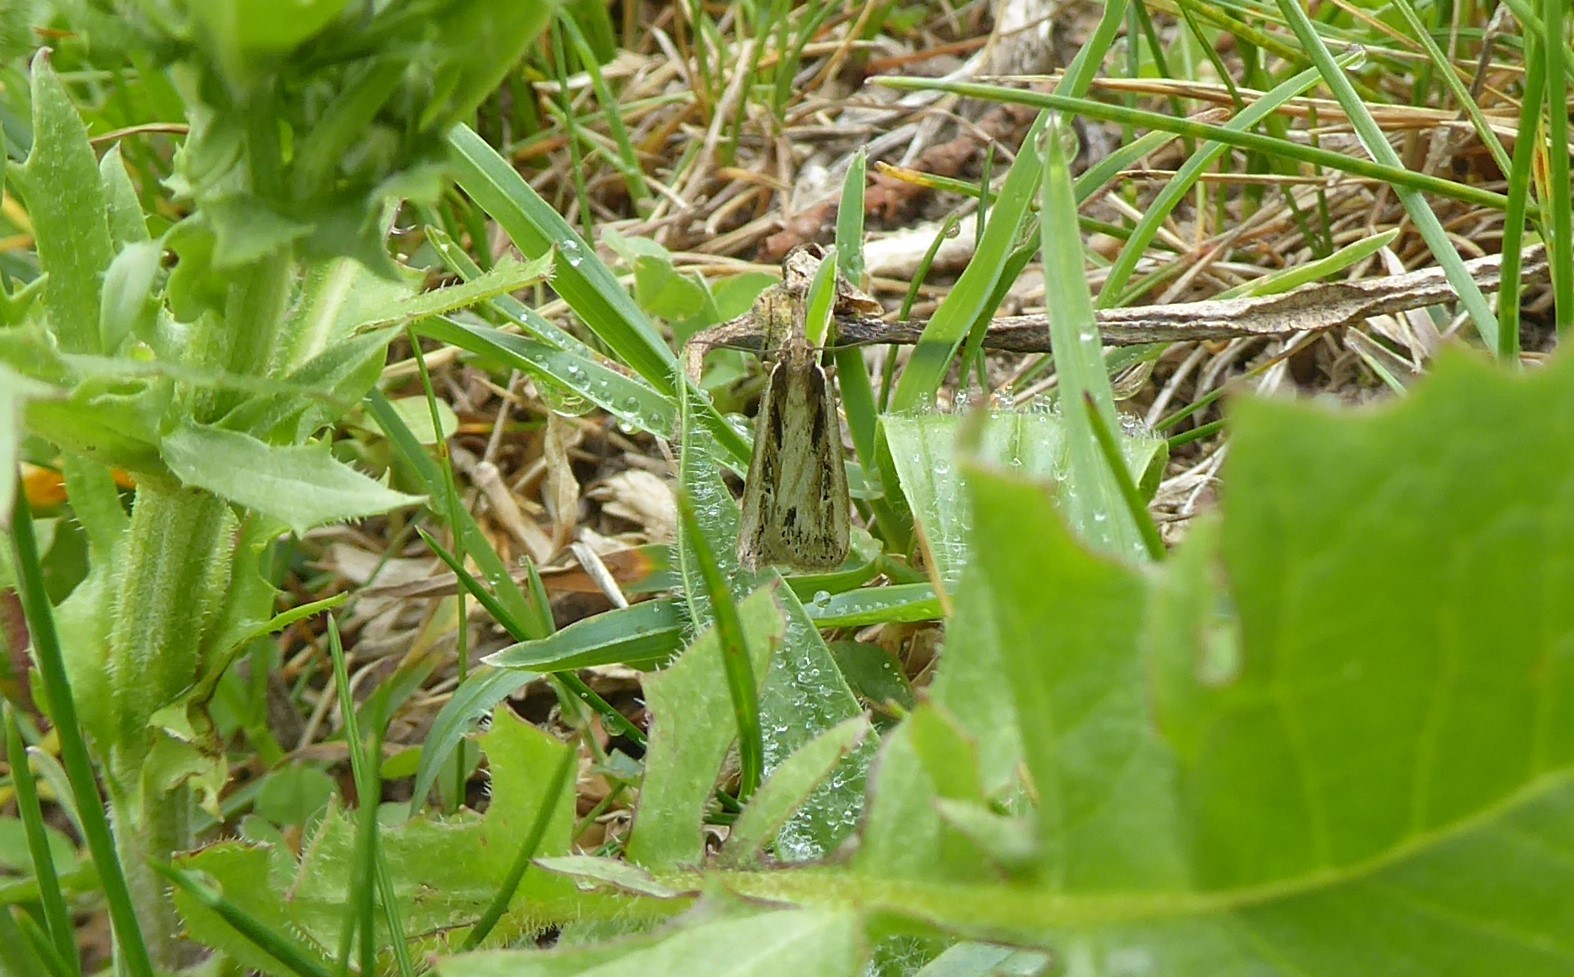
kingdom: Animalia
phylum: Arthropoda
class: Insecta
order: Lepidoptera
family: Crambidae
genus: Eudonia
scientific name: Eudonia sabulosella
